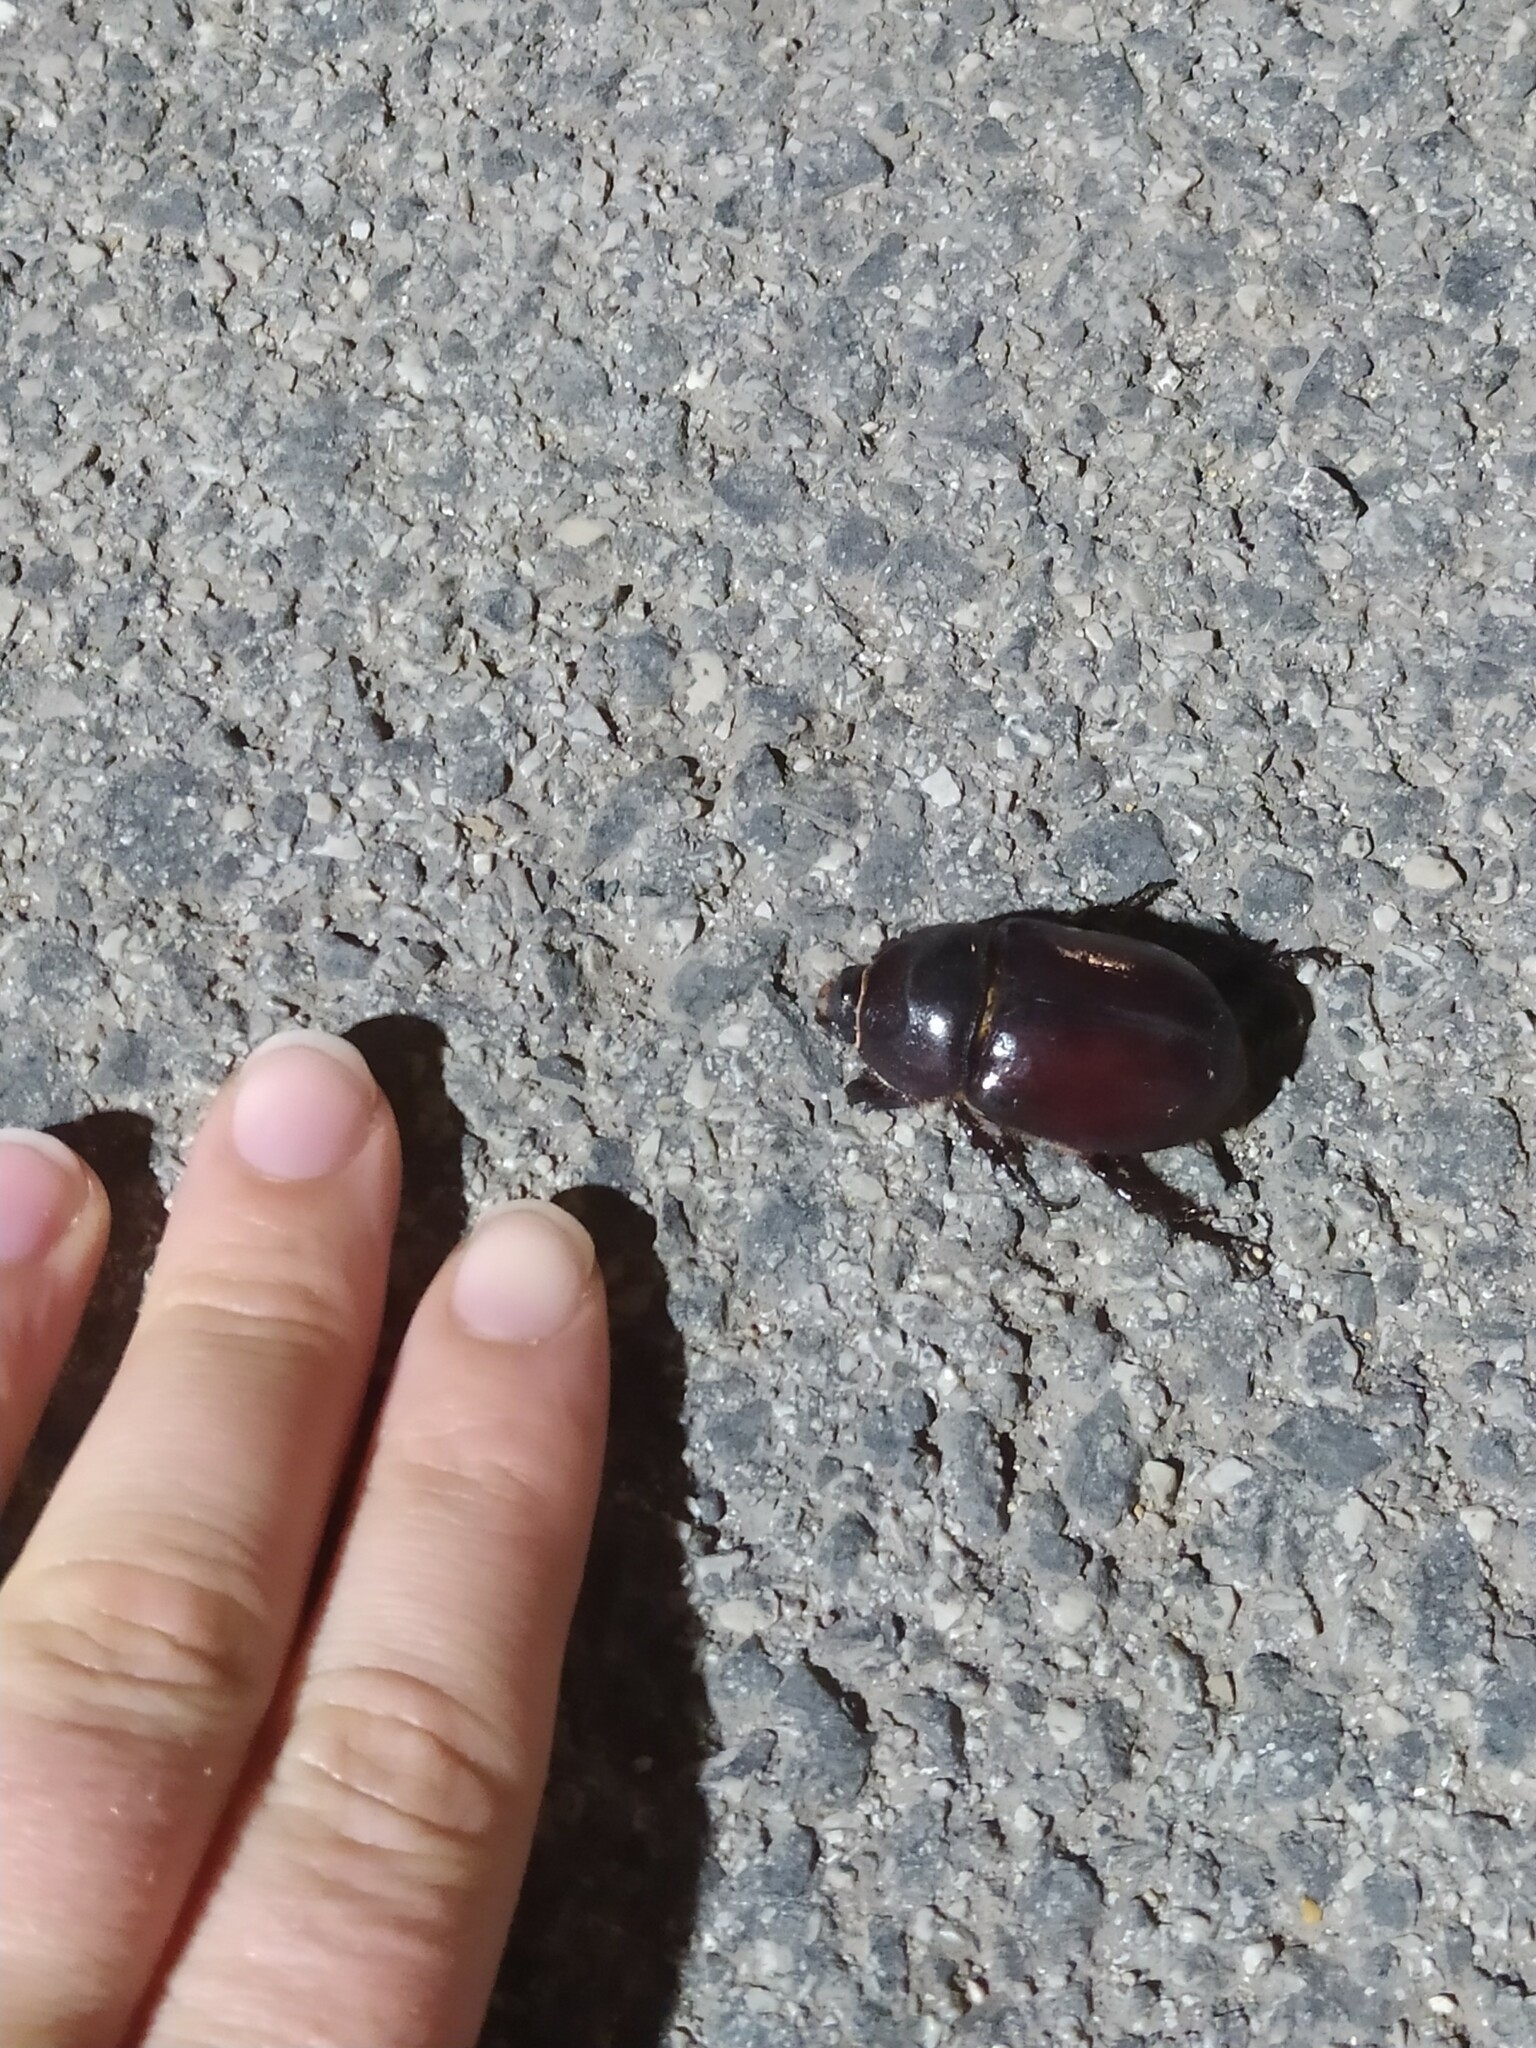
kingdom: Animalia
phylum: Arthropoda
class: Insecta
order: Coleoptera
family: Scarabaeidae
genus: Oryctes
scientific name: Oryctes nasicornis
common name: European rhinoceros beetle
